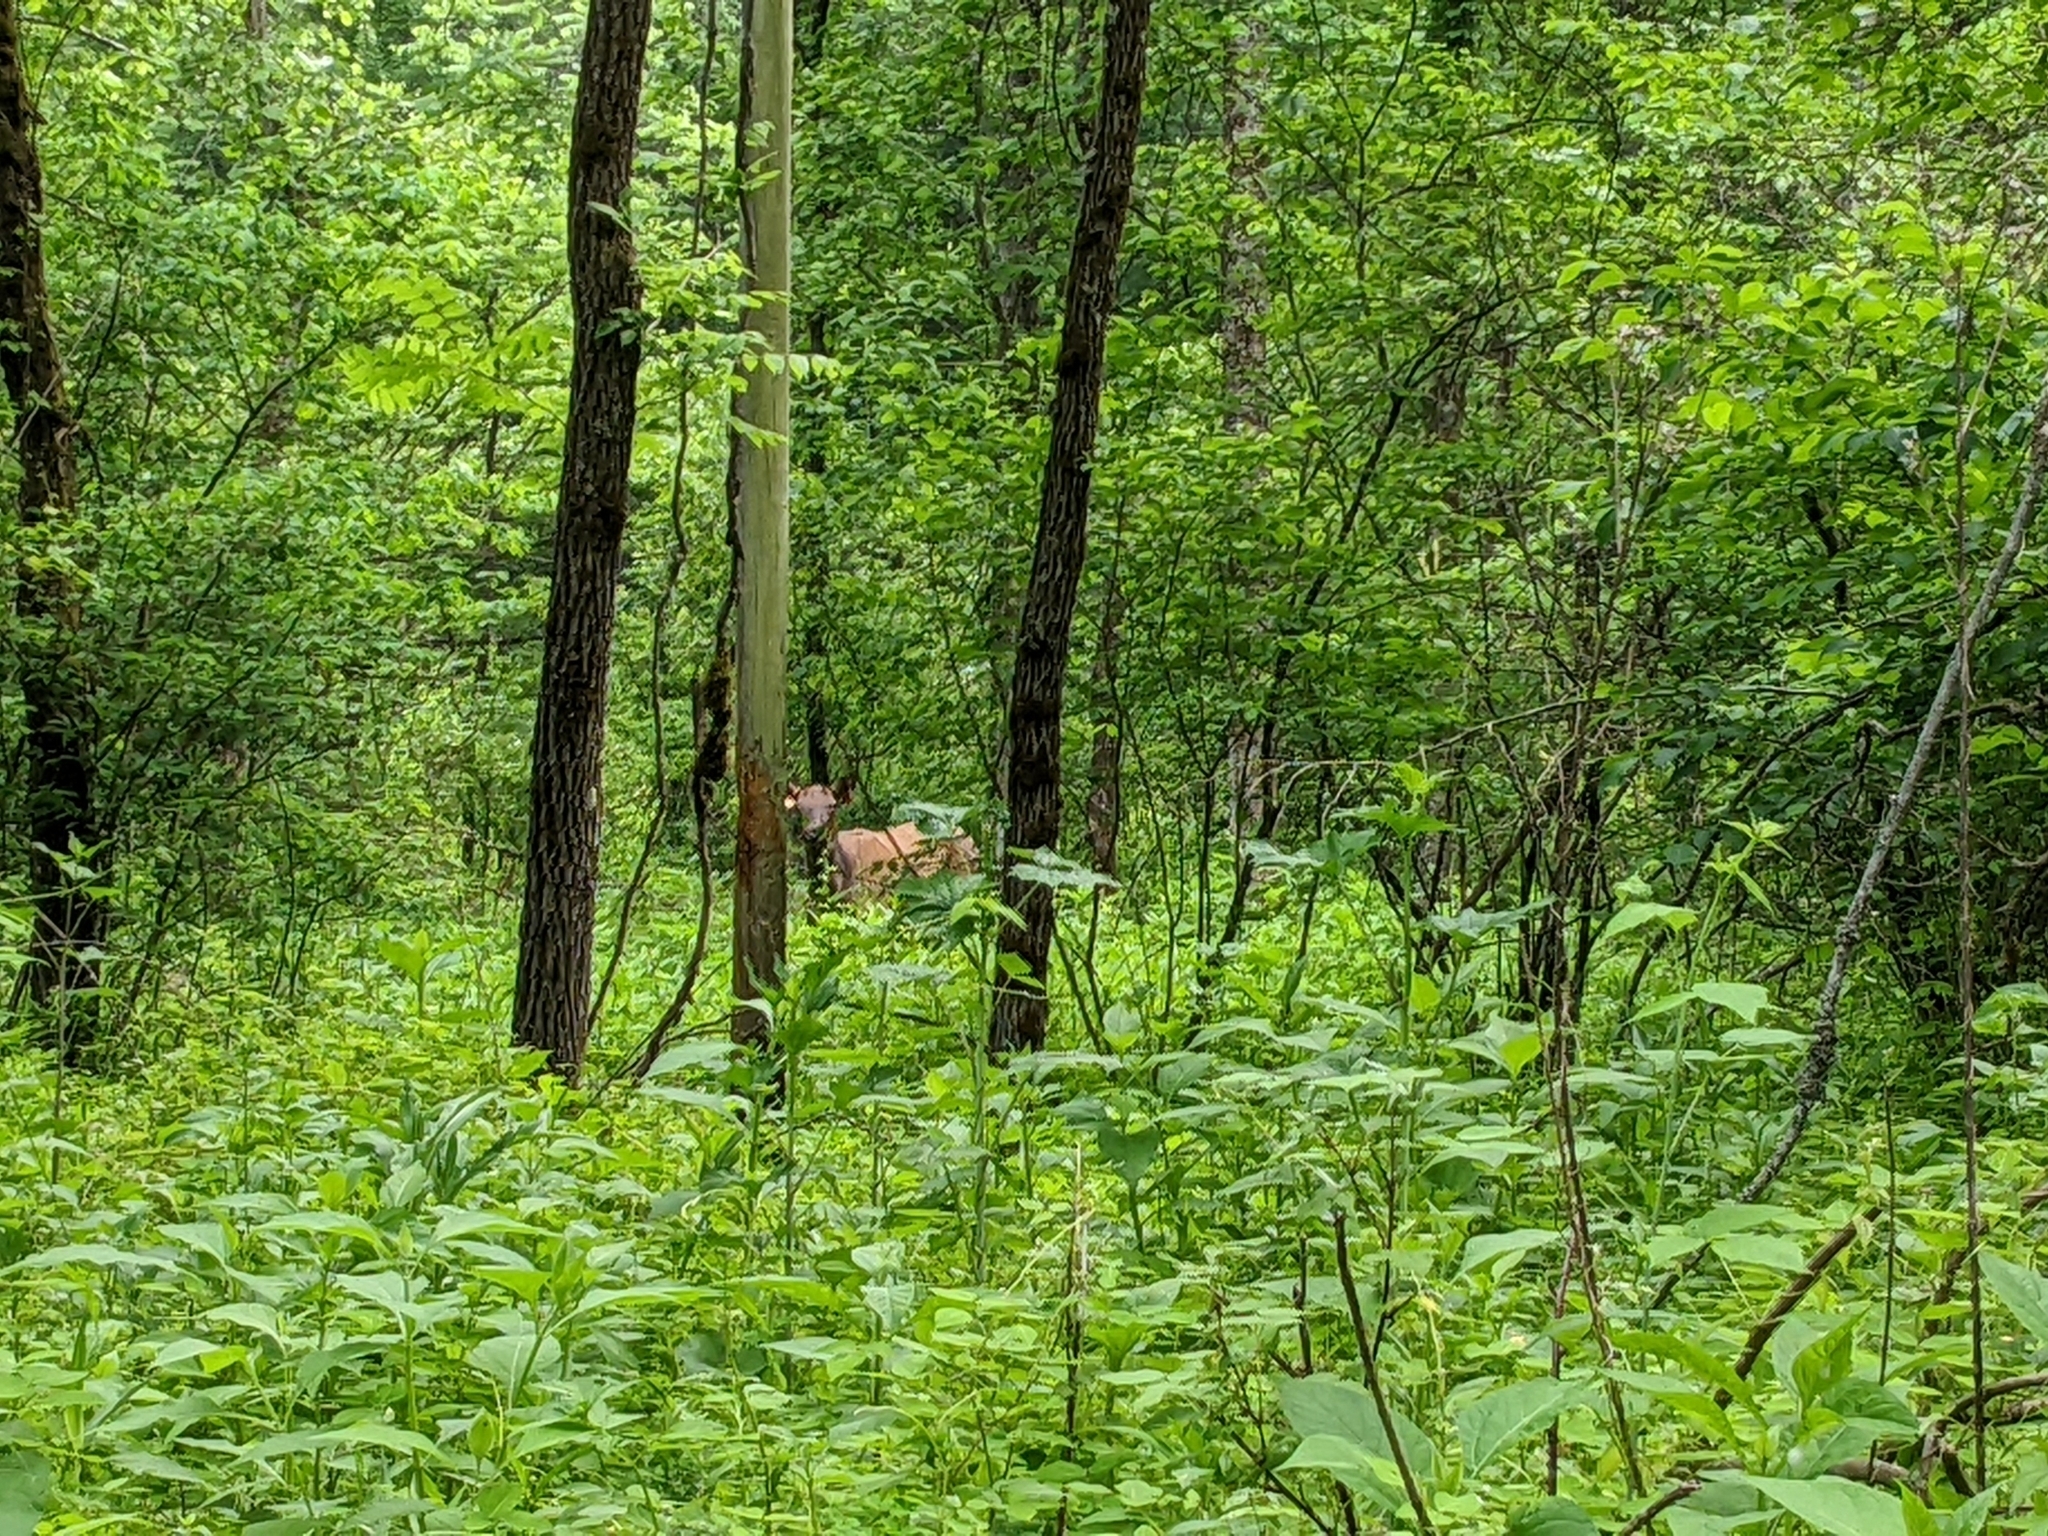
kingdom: Animalia
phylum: Chordata
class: Mammalia
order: Artiodactyla
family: Cervidae
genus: Cervus
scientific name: Cervus elaphus
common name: Red deer
